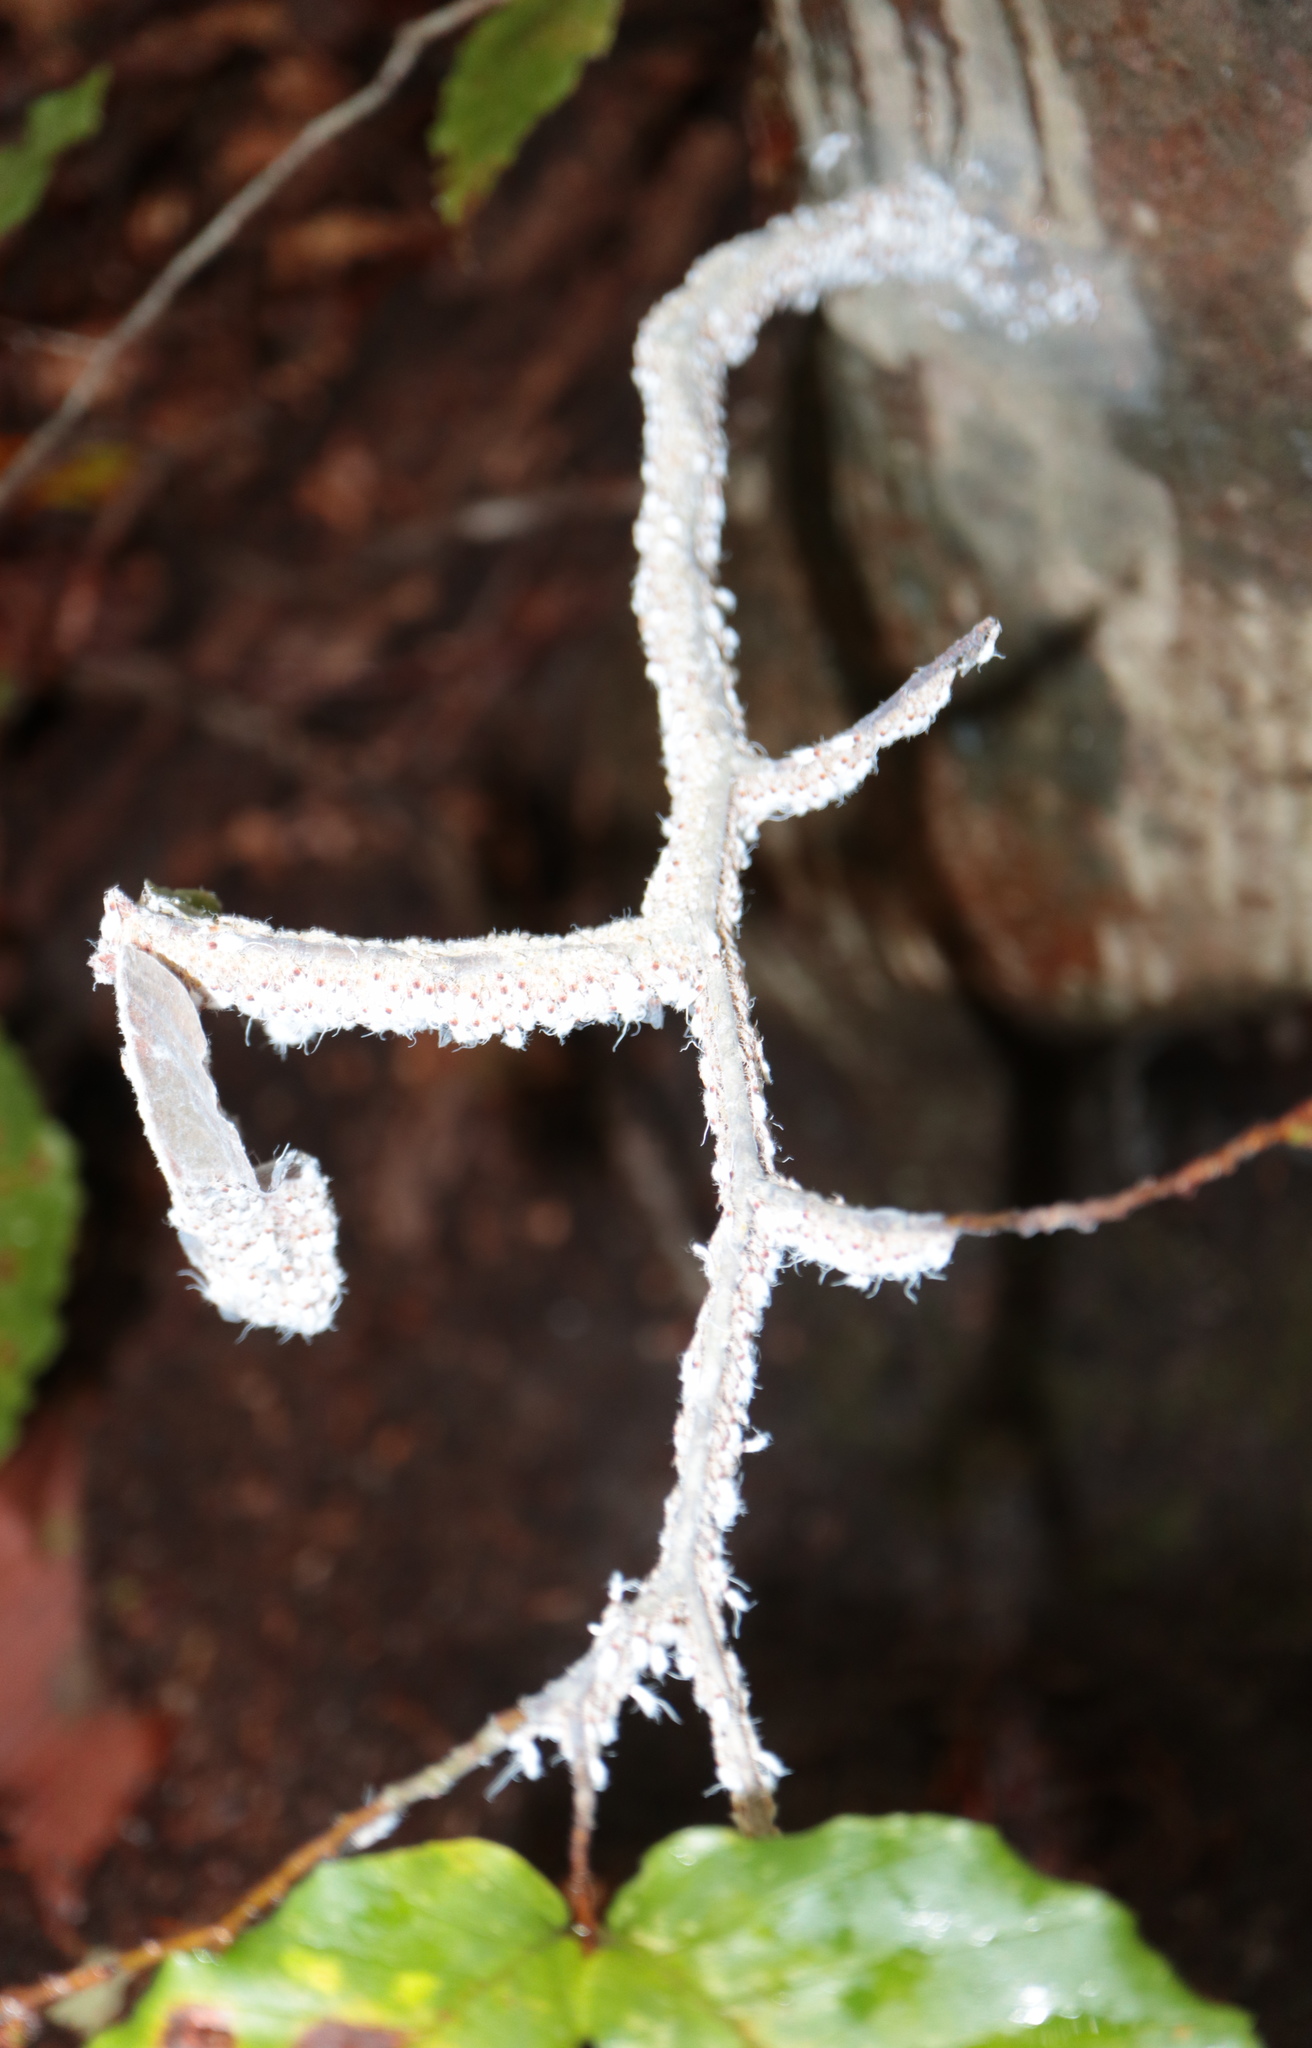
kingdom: Animalia
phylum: Arthropoda
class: Insecta
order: Hemiptera
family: Aphididae
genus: Grylloprociphilus
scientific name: Grylloprociphilus imbricator
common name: Beech blight aphid
